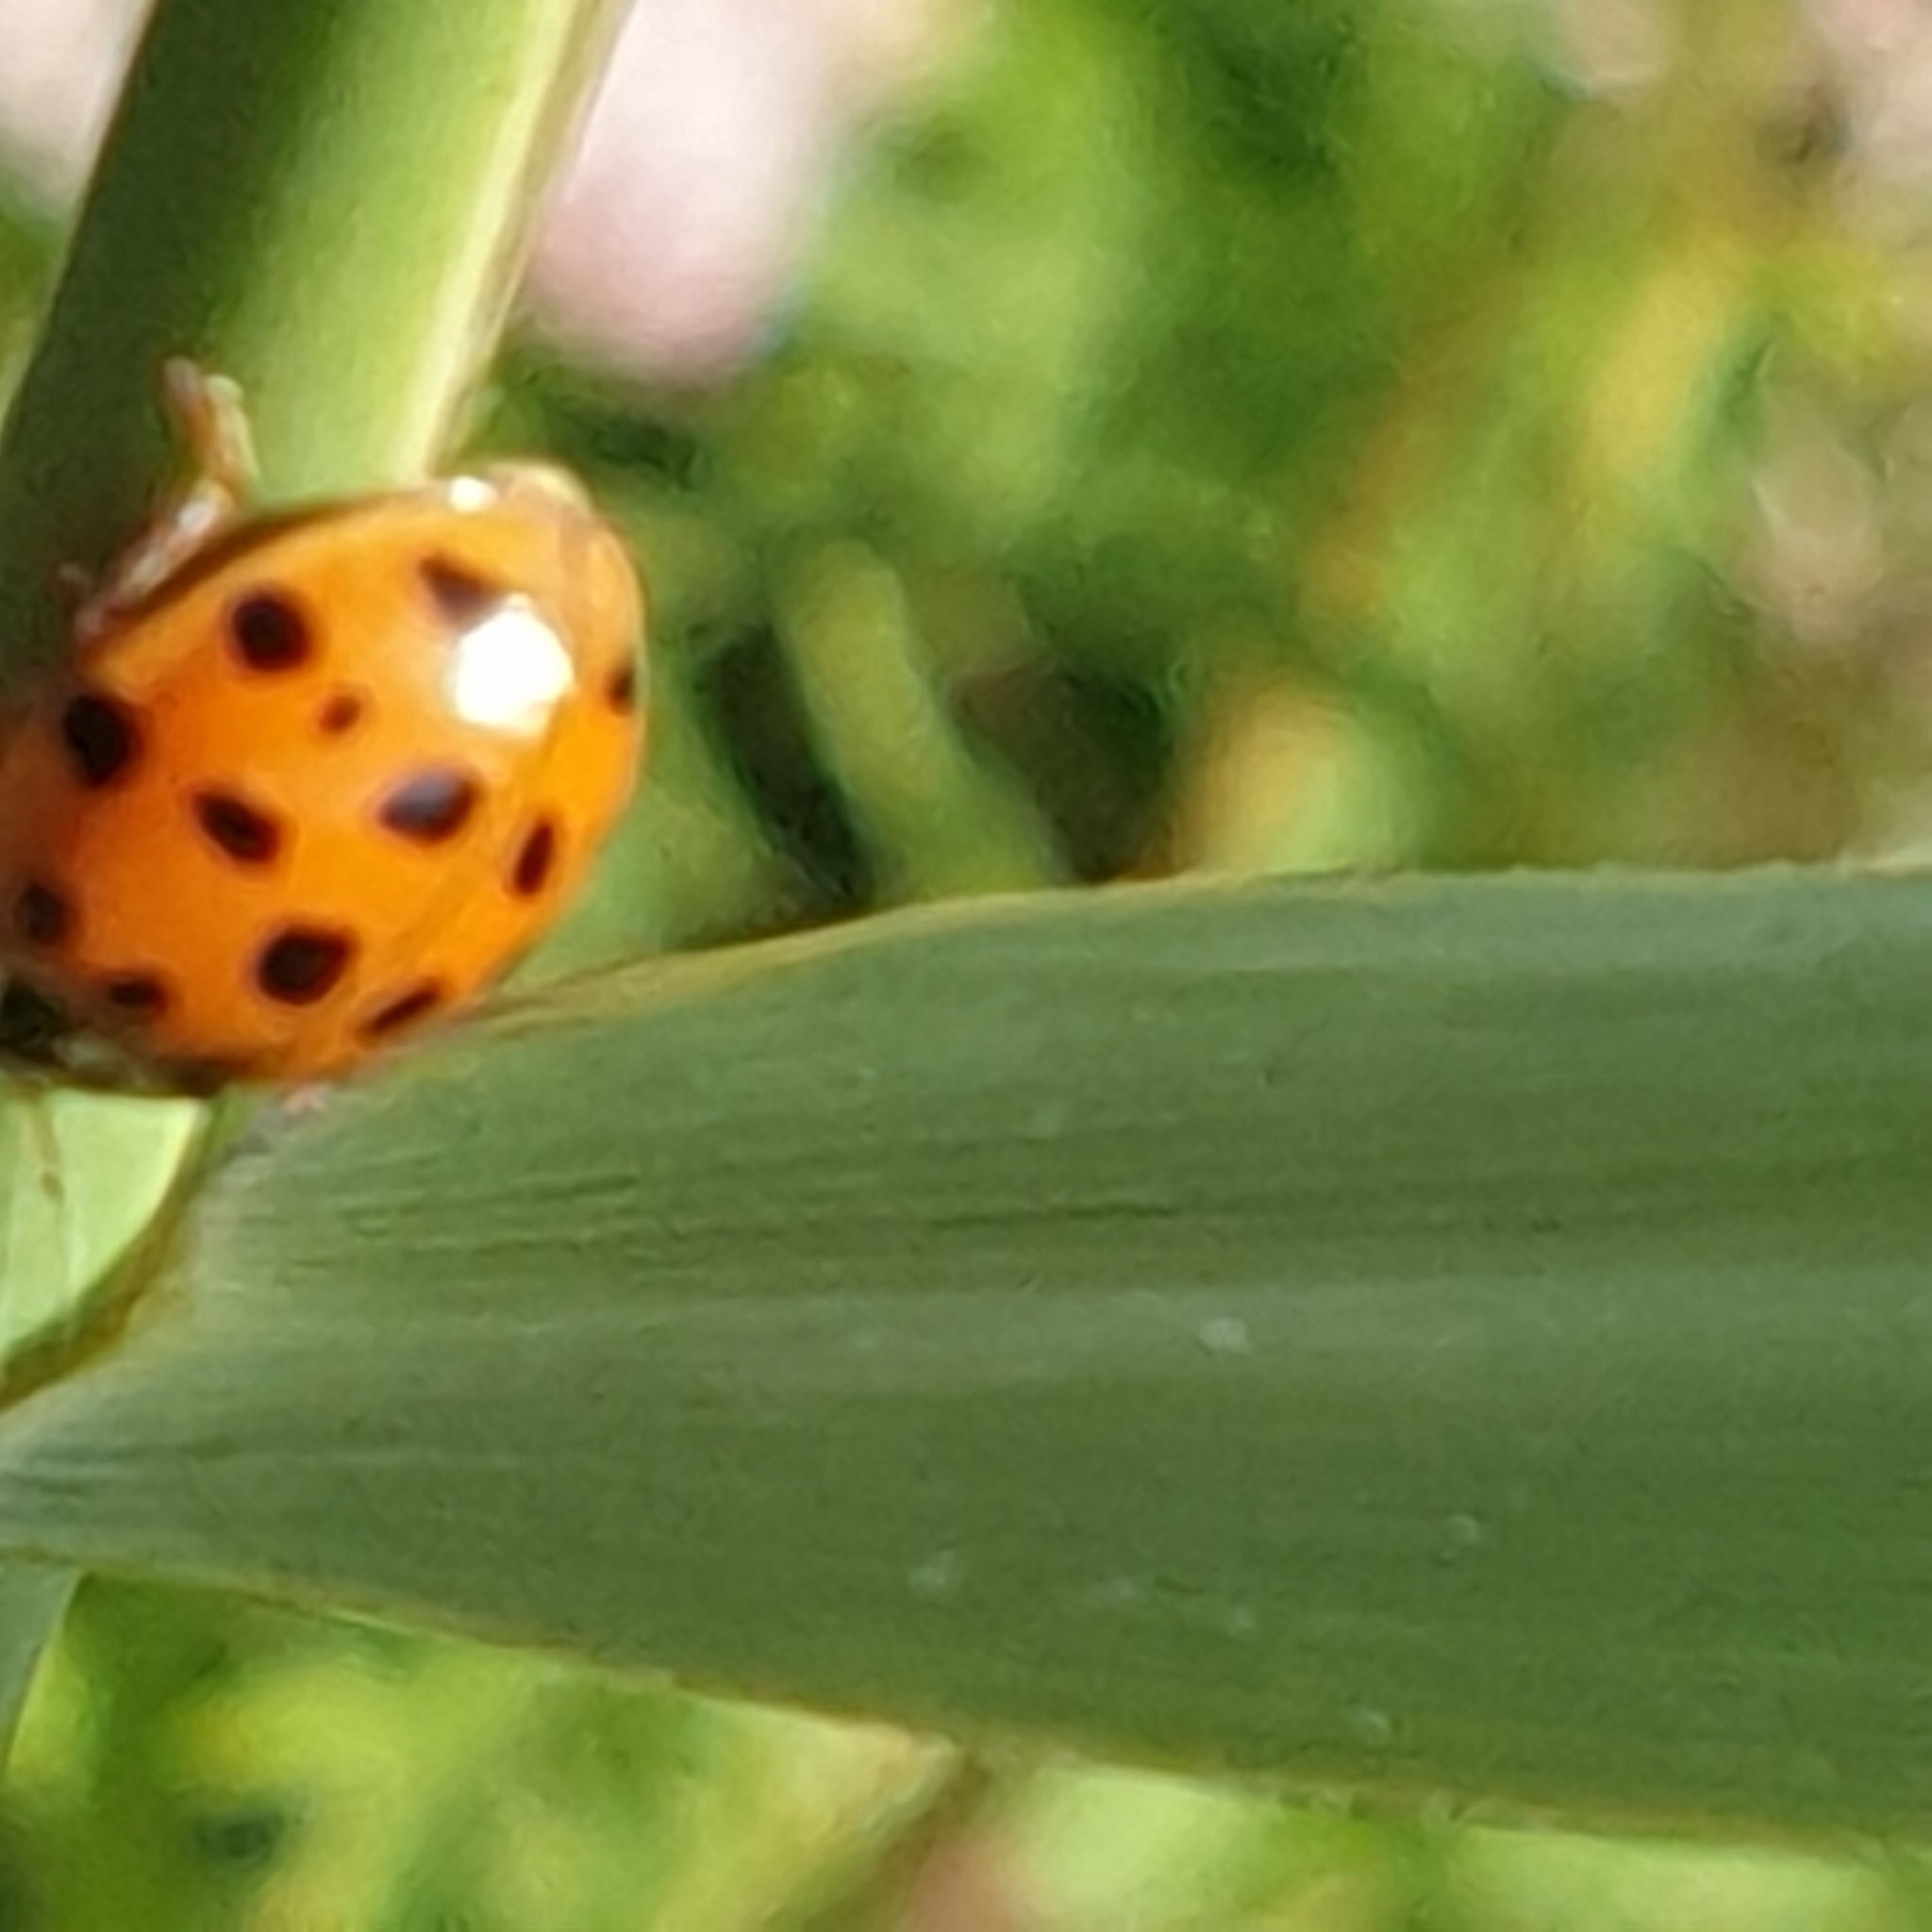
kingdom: Animalia
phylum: Arthropoda
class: Insecta
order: Coleoptera
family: Coccinellidae
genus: Harmonia
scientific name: Harmonia axyridis
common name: Harlequin ladybird
